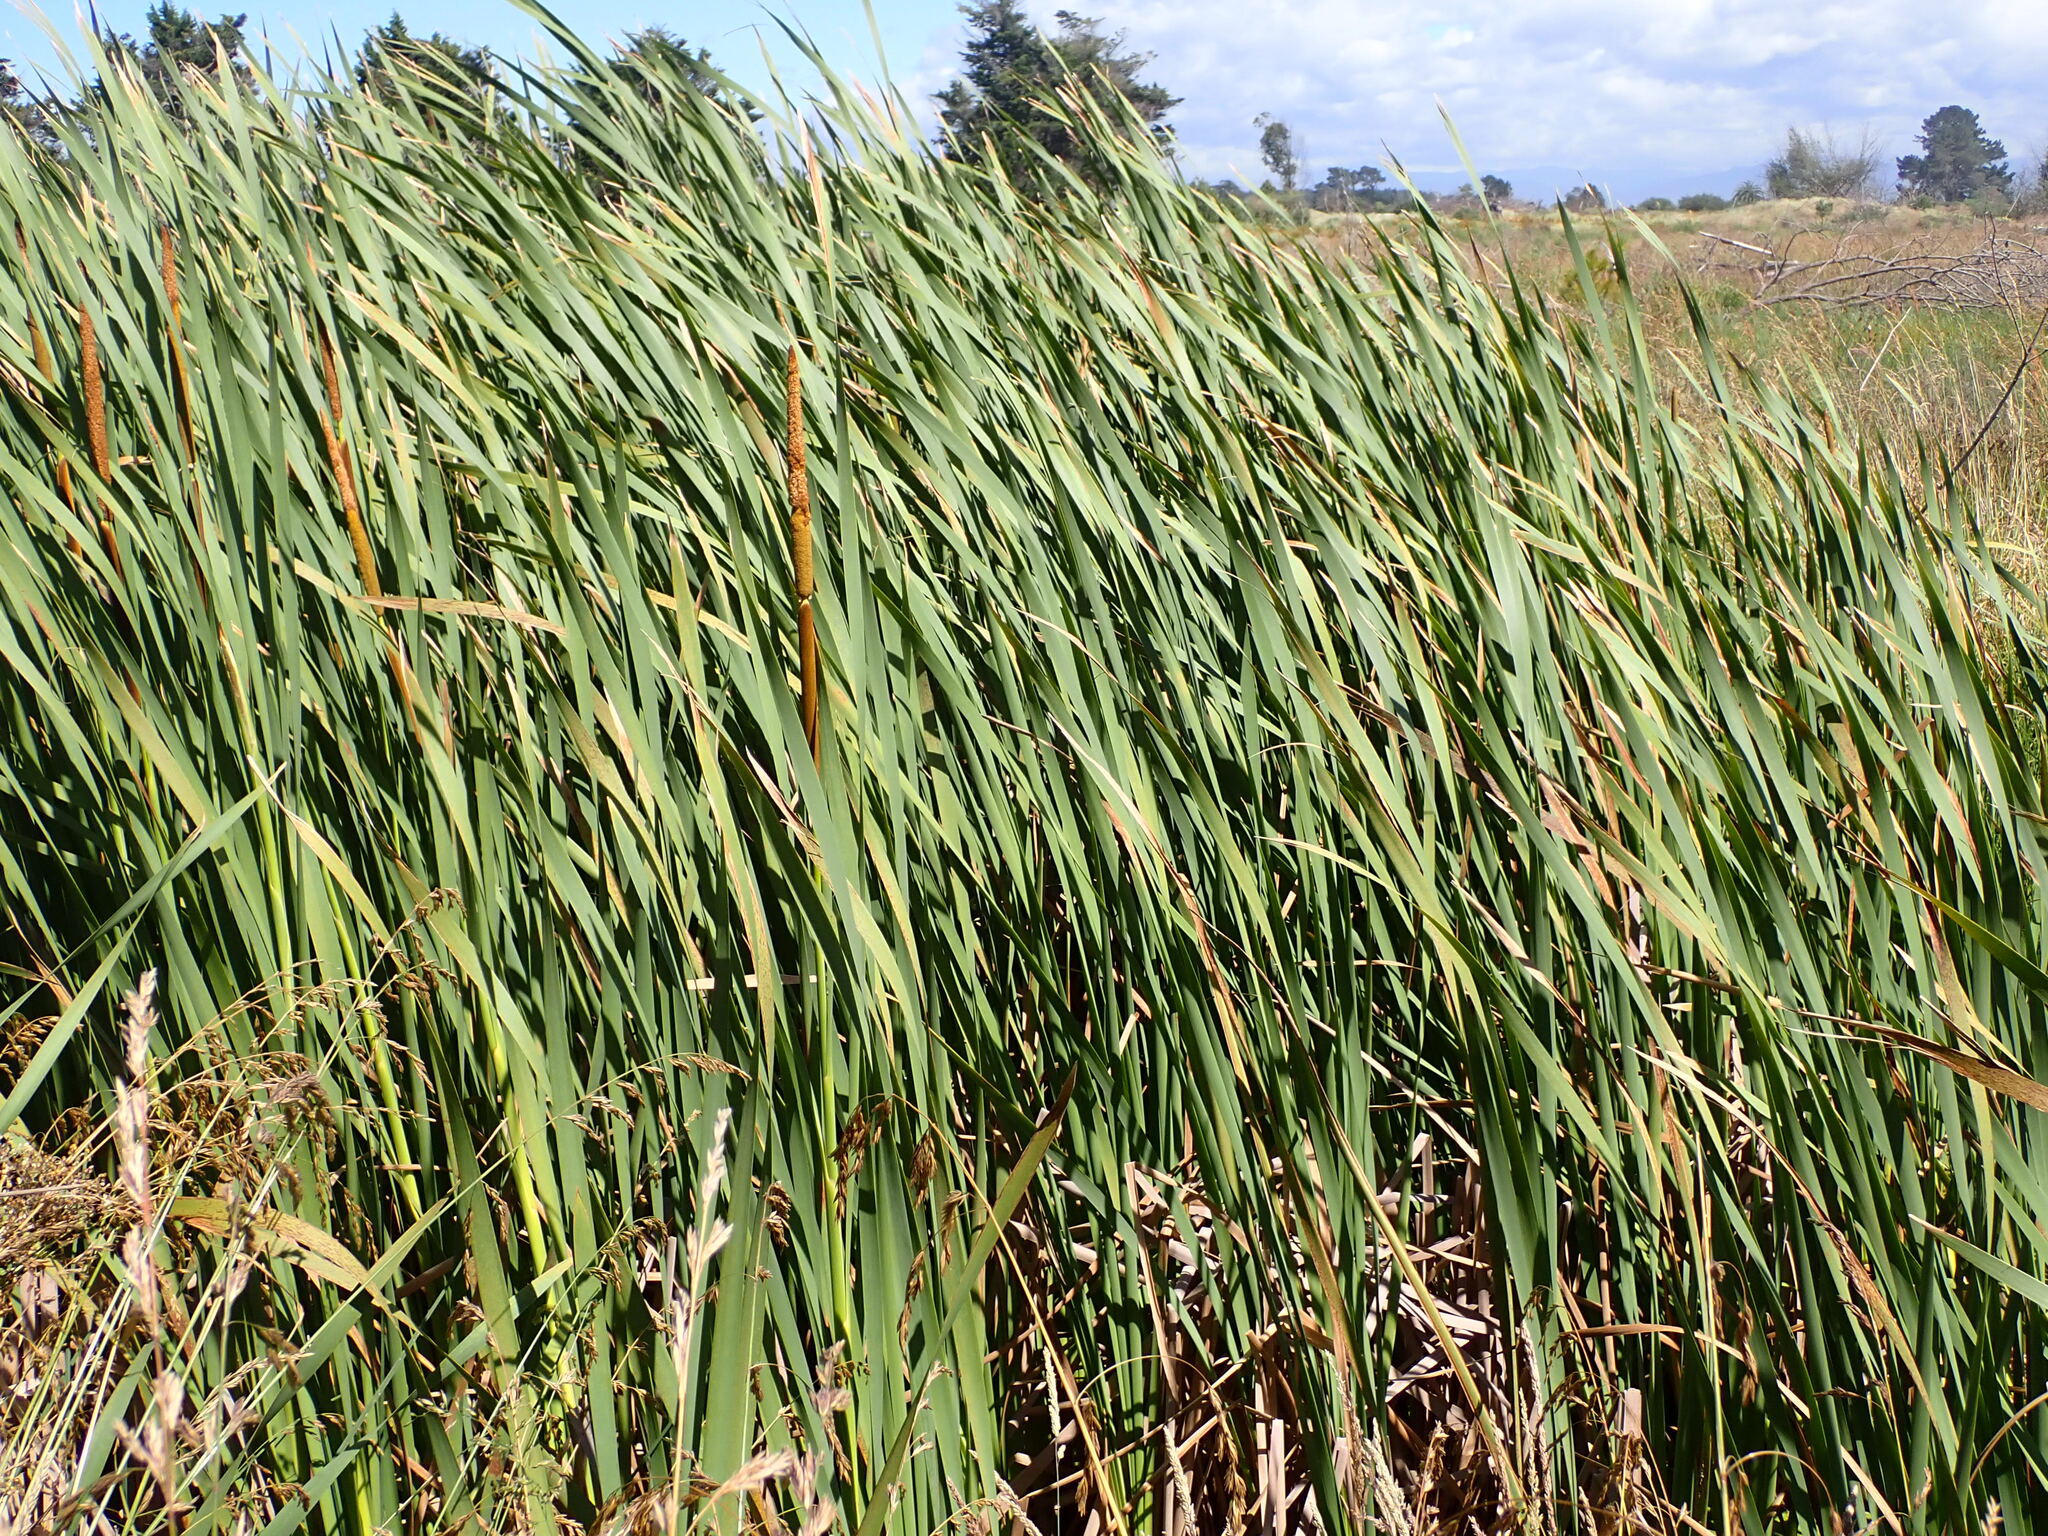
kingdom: Plantae
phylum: Tracheophyta
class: Liliopsida
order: Poales
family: Typhaceae
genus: Typha
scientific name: Typha orientalis
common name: Bullrush
